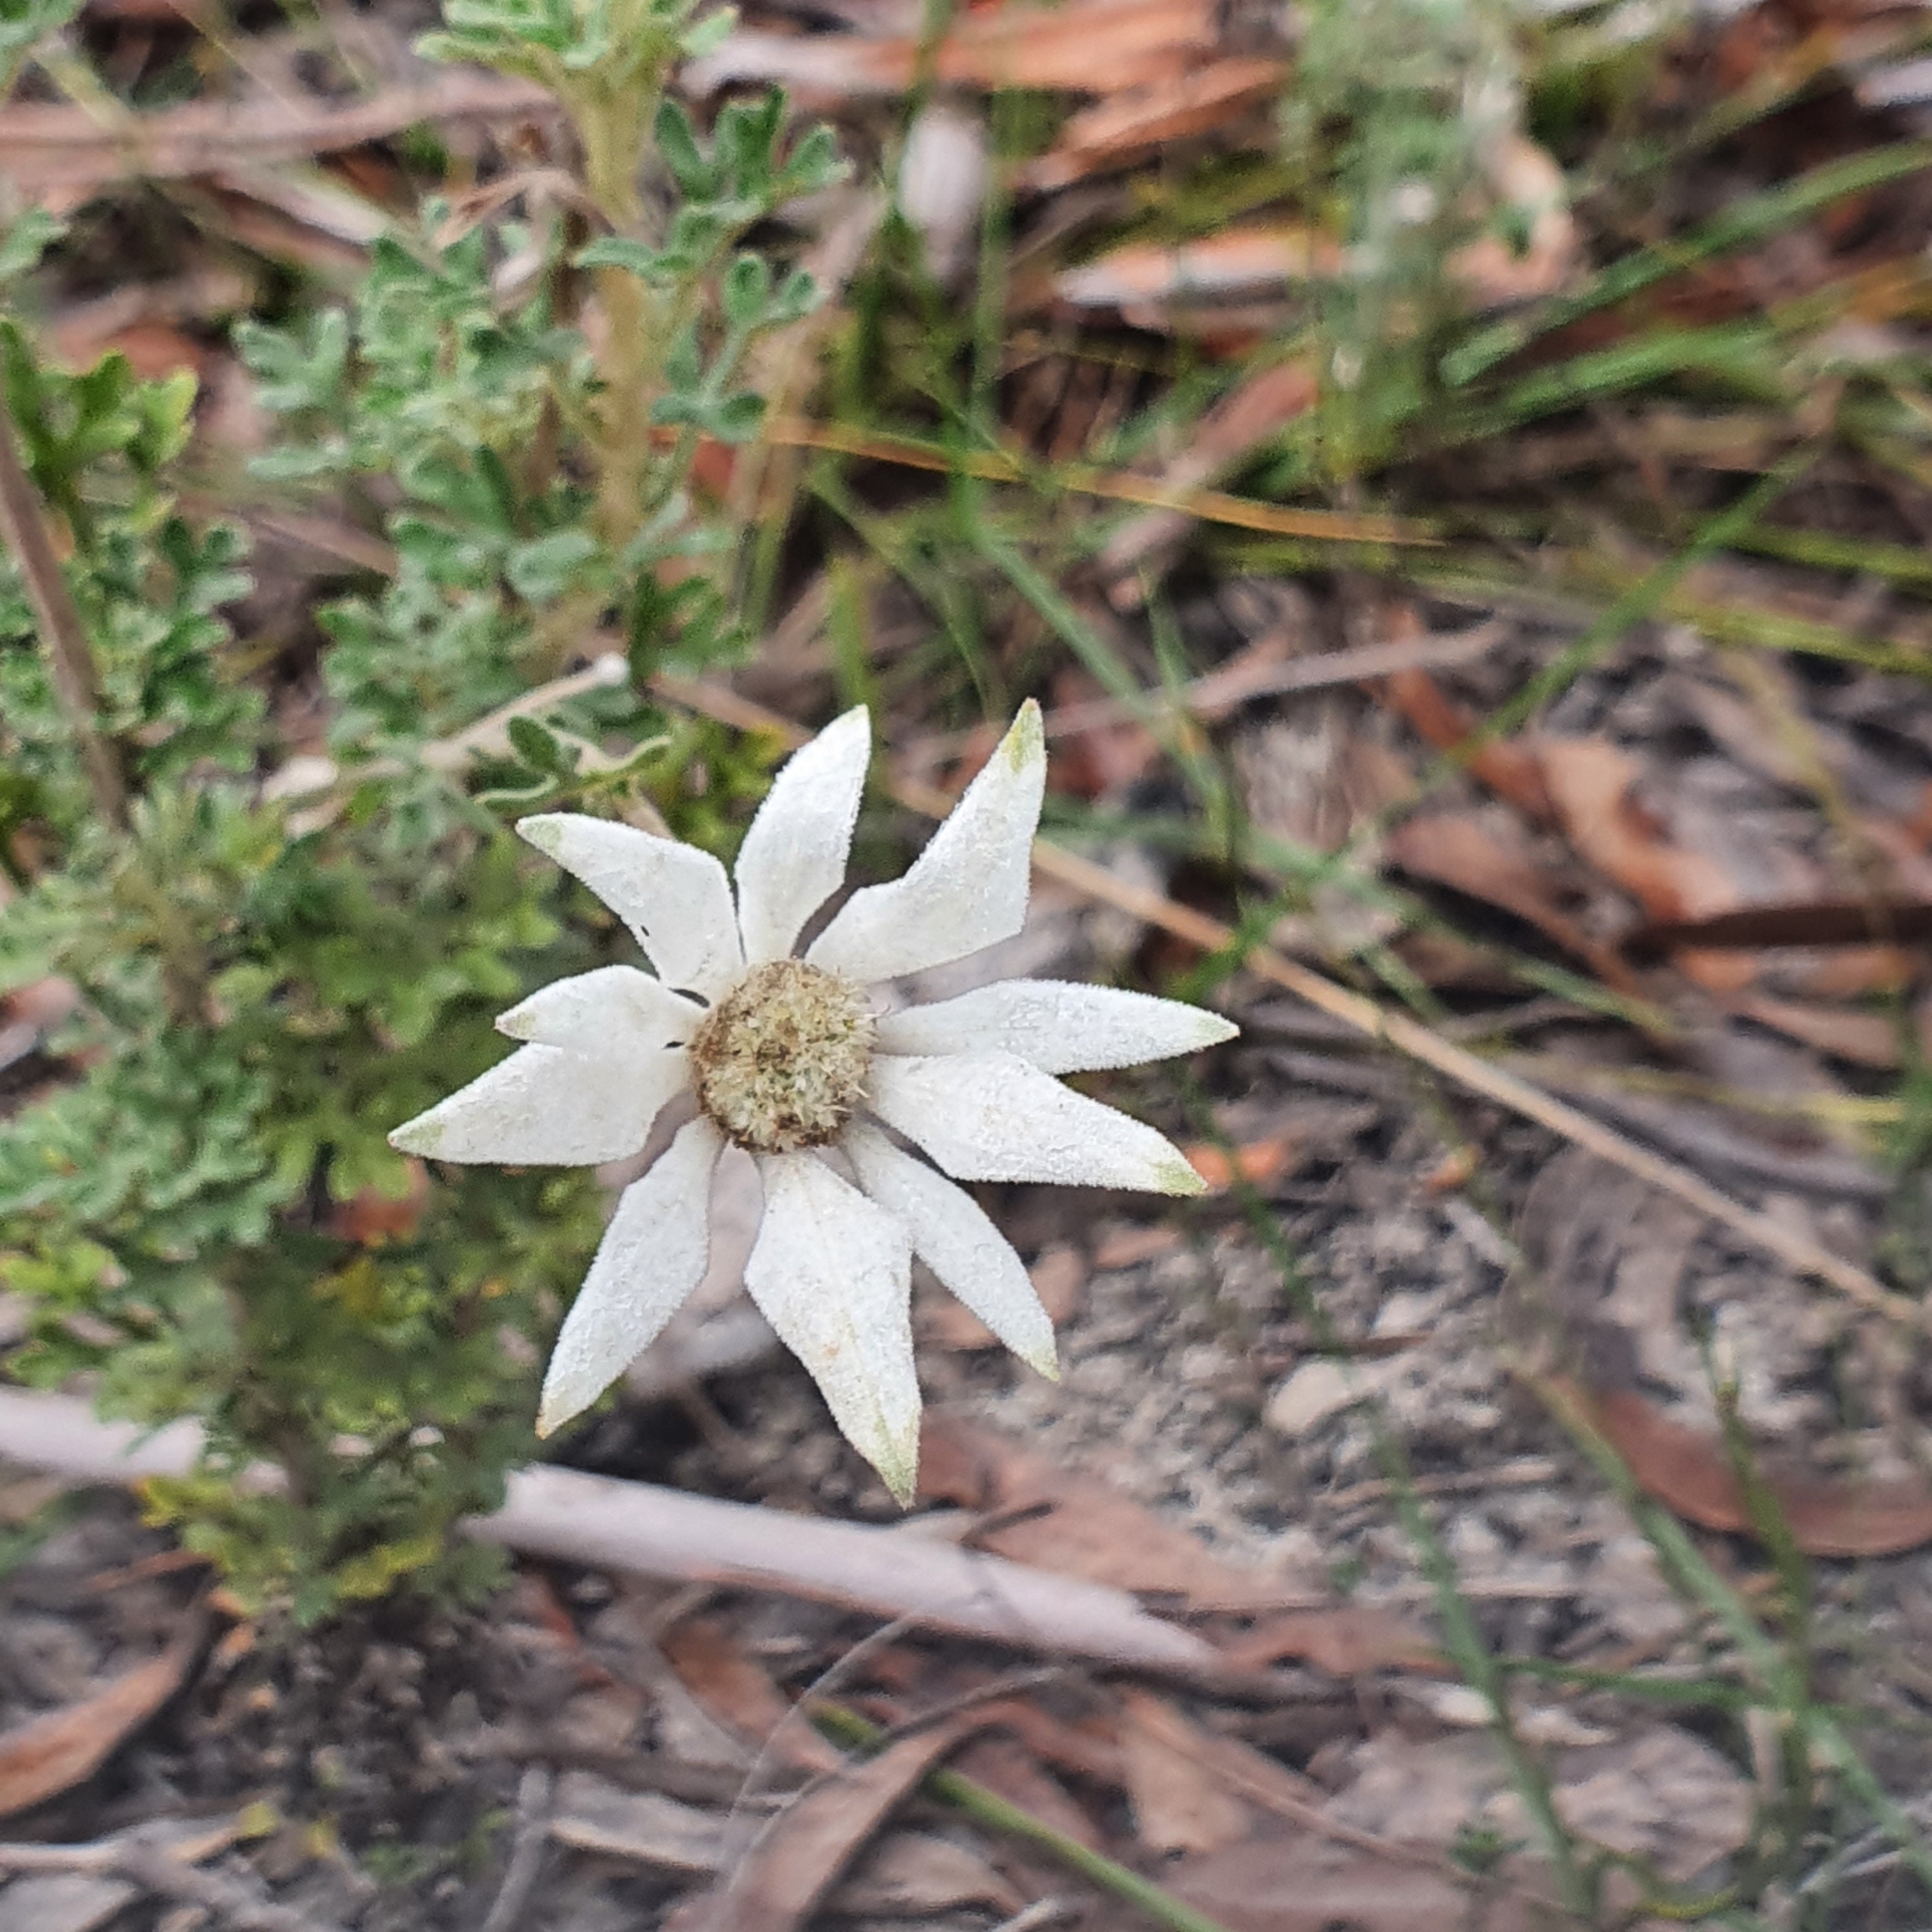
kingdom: Plantae
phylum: Tracheophyta
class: Magnoliopsida
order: Apiales
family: Apiaceae
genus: Actinotus
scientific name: Actinotus helianthi
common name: Flannel-flower
